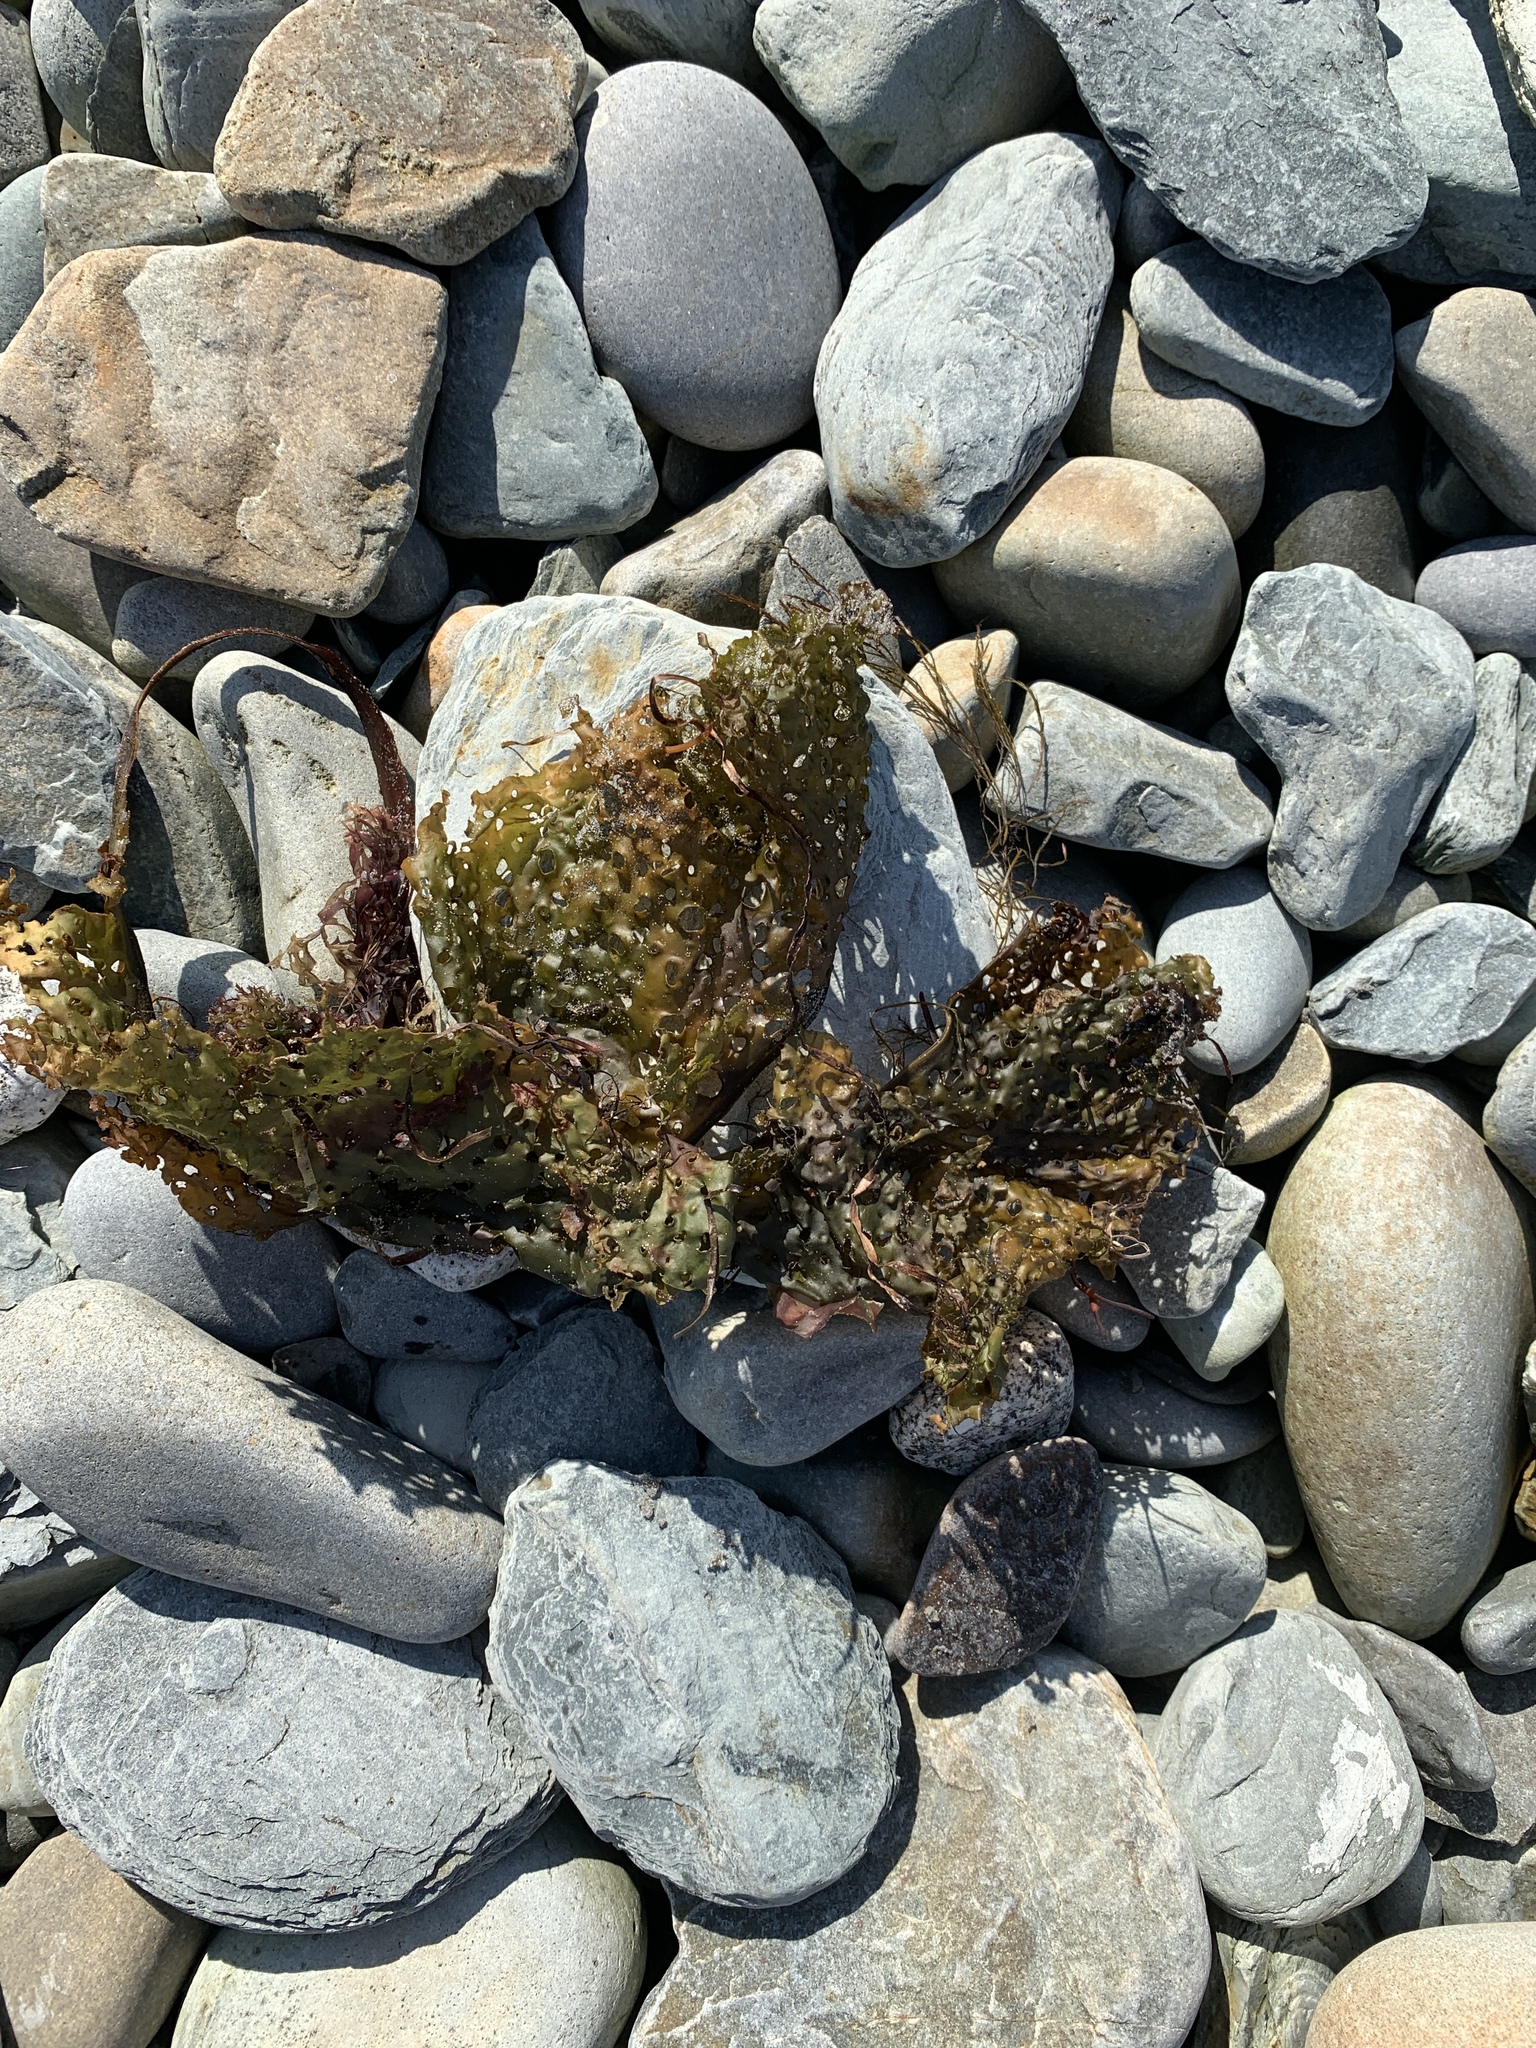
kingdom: Chromista
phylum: Ochrophyta
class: Phaeophyceae
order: Laminariales
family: Costariaceae
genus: Agarum
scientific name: Agarum clathratum
